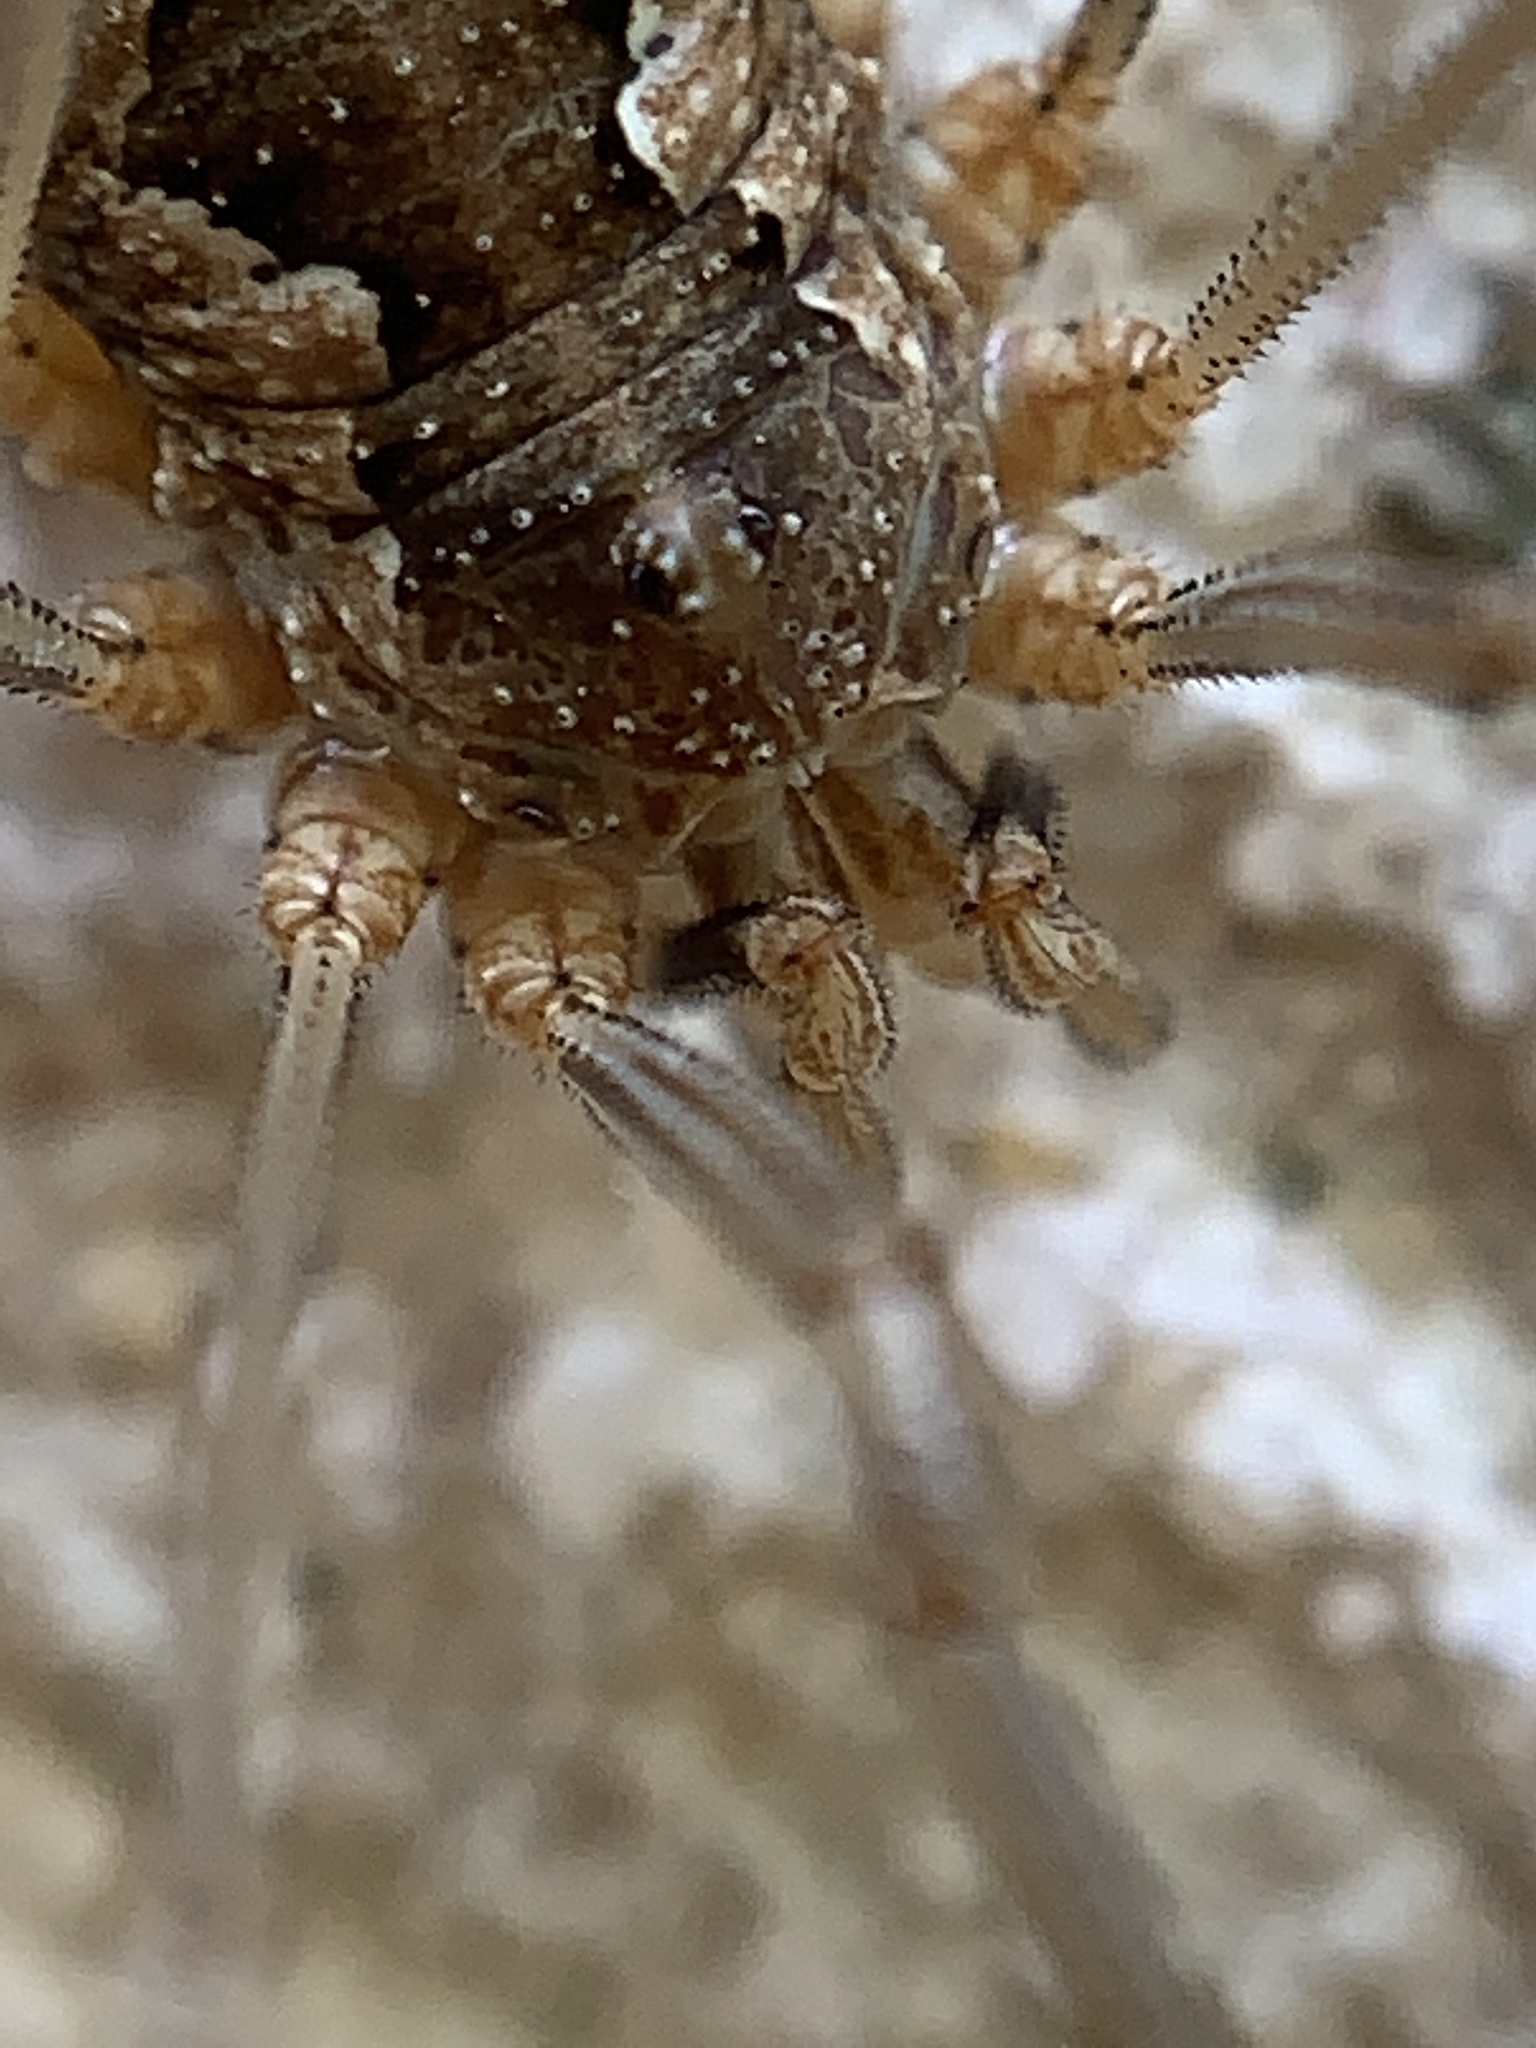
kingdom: Animalia
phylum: Arthropoda
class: Arachnida
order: Opiliones
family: Phalangiidae
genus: Phalangium
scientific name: Phalangium opilio
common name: Daddy longleg
